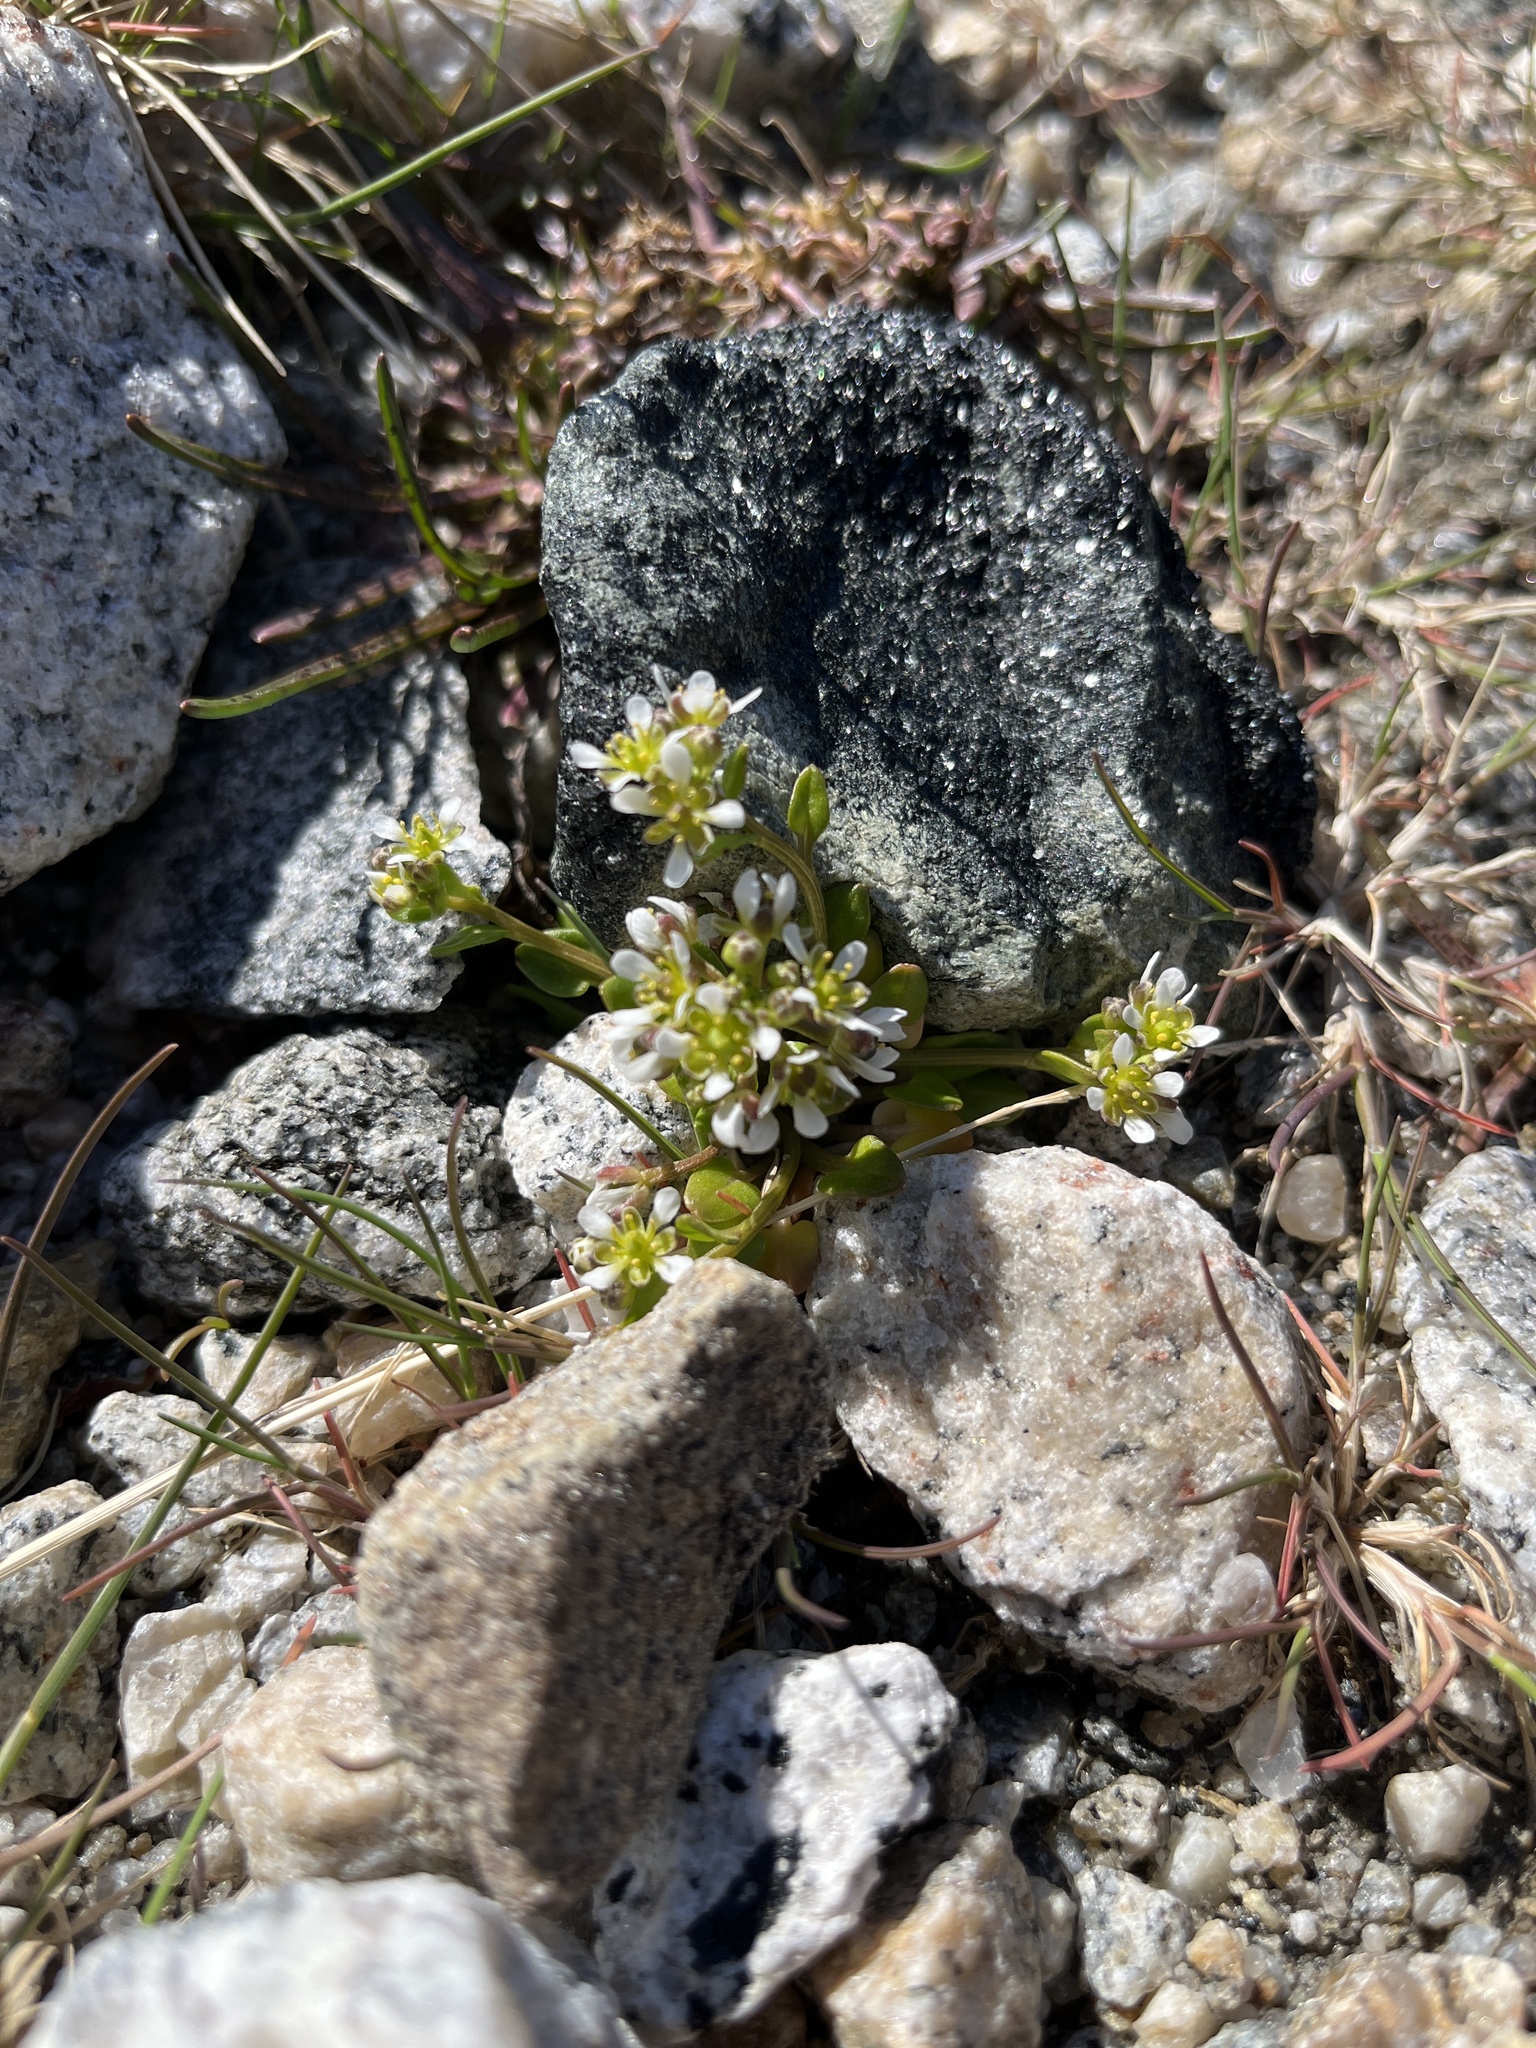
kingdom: Plantae
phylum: Tracheophyta
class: Magnoliopsida
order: Brassicales
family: Brassicaceae
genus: Cochlearia
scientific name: Cochlearia groenlandica
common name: Danish scurvygrass
